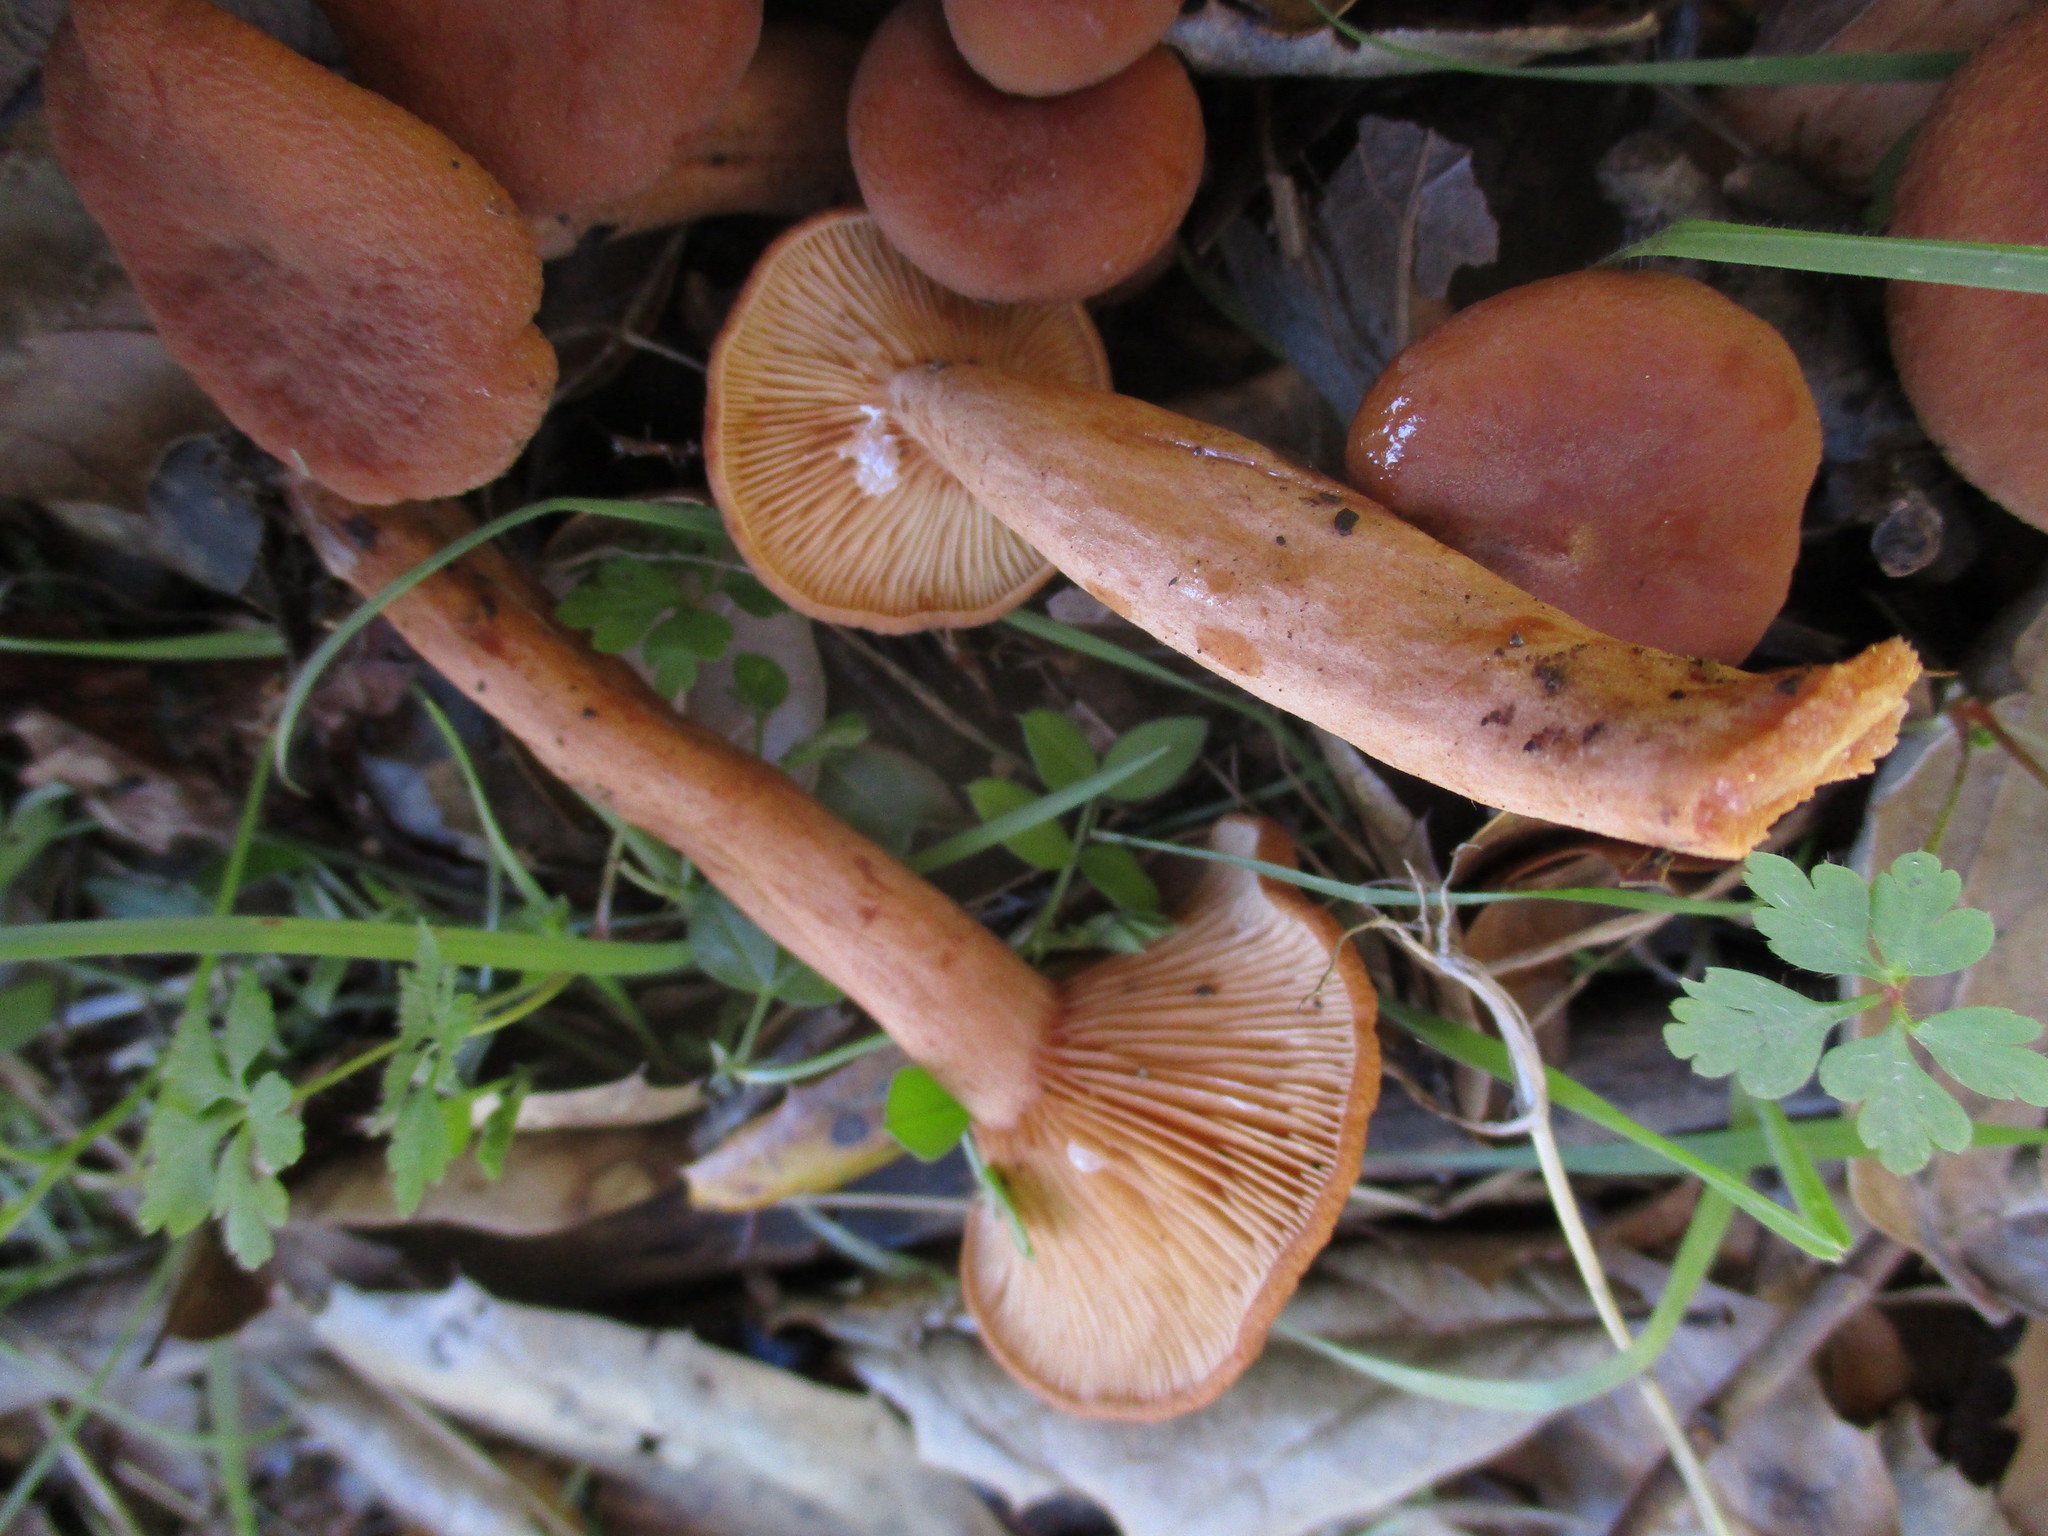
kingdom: Fungi
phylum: Basidiomycota
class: Agaricomycetes
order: Russulales
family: Russulaceae
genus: Lactarius
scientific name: Lactarius rubidus
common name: Candy cap
